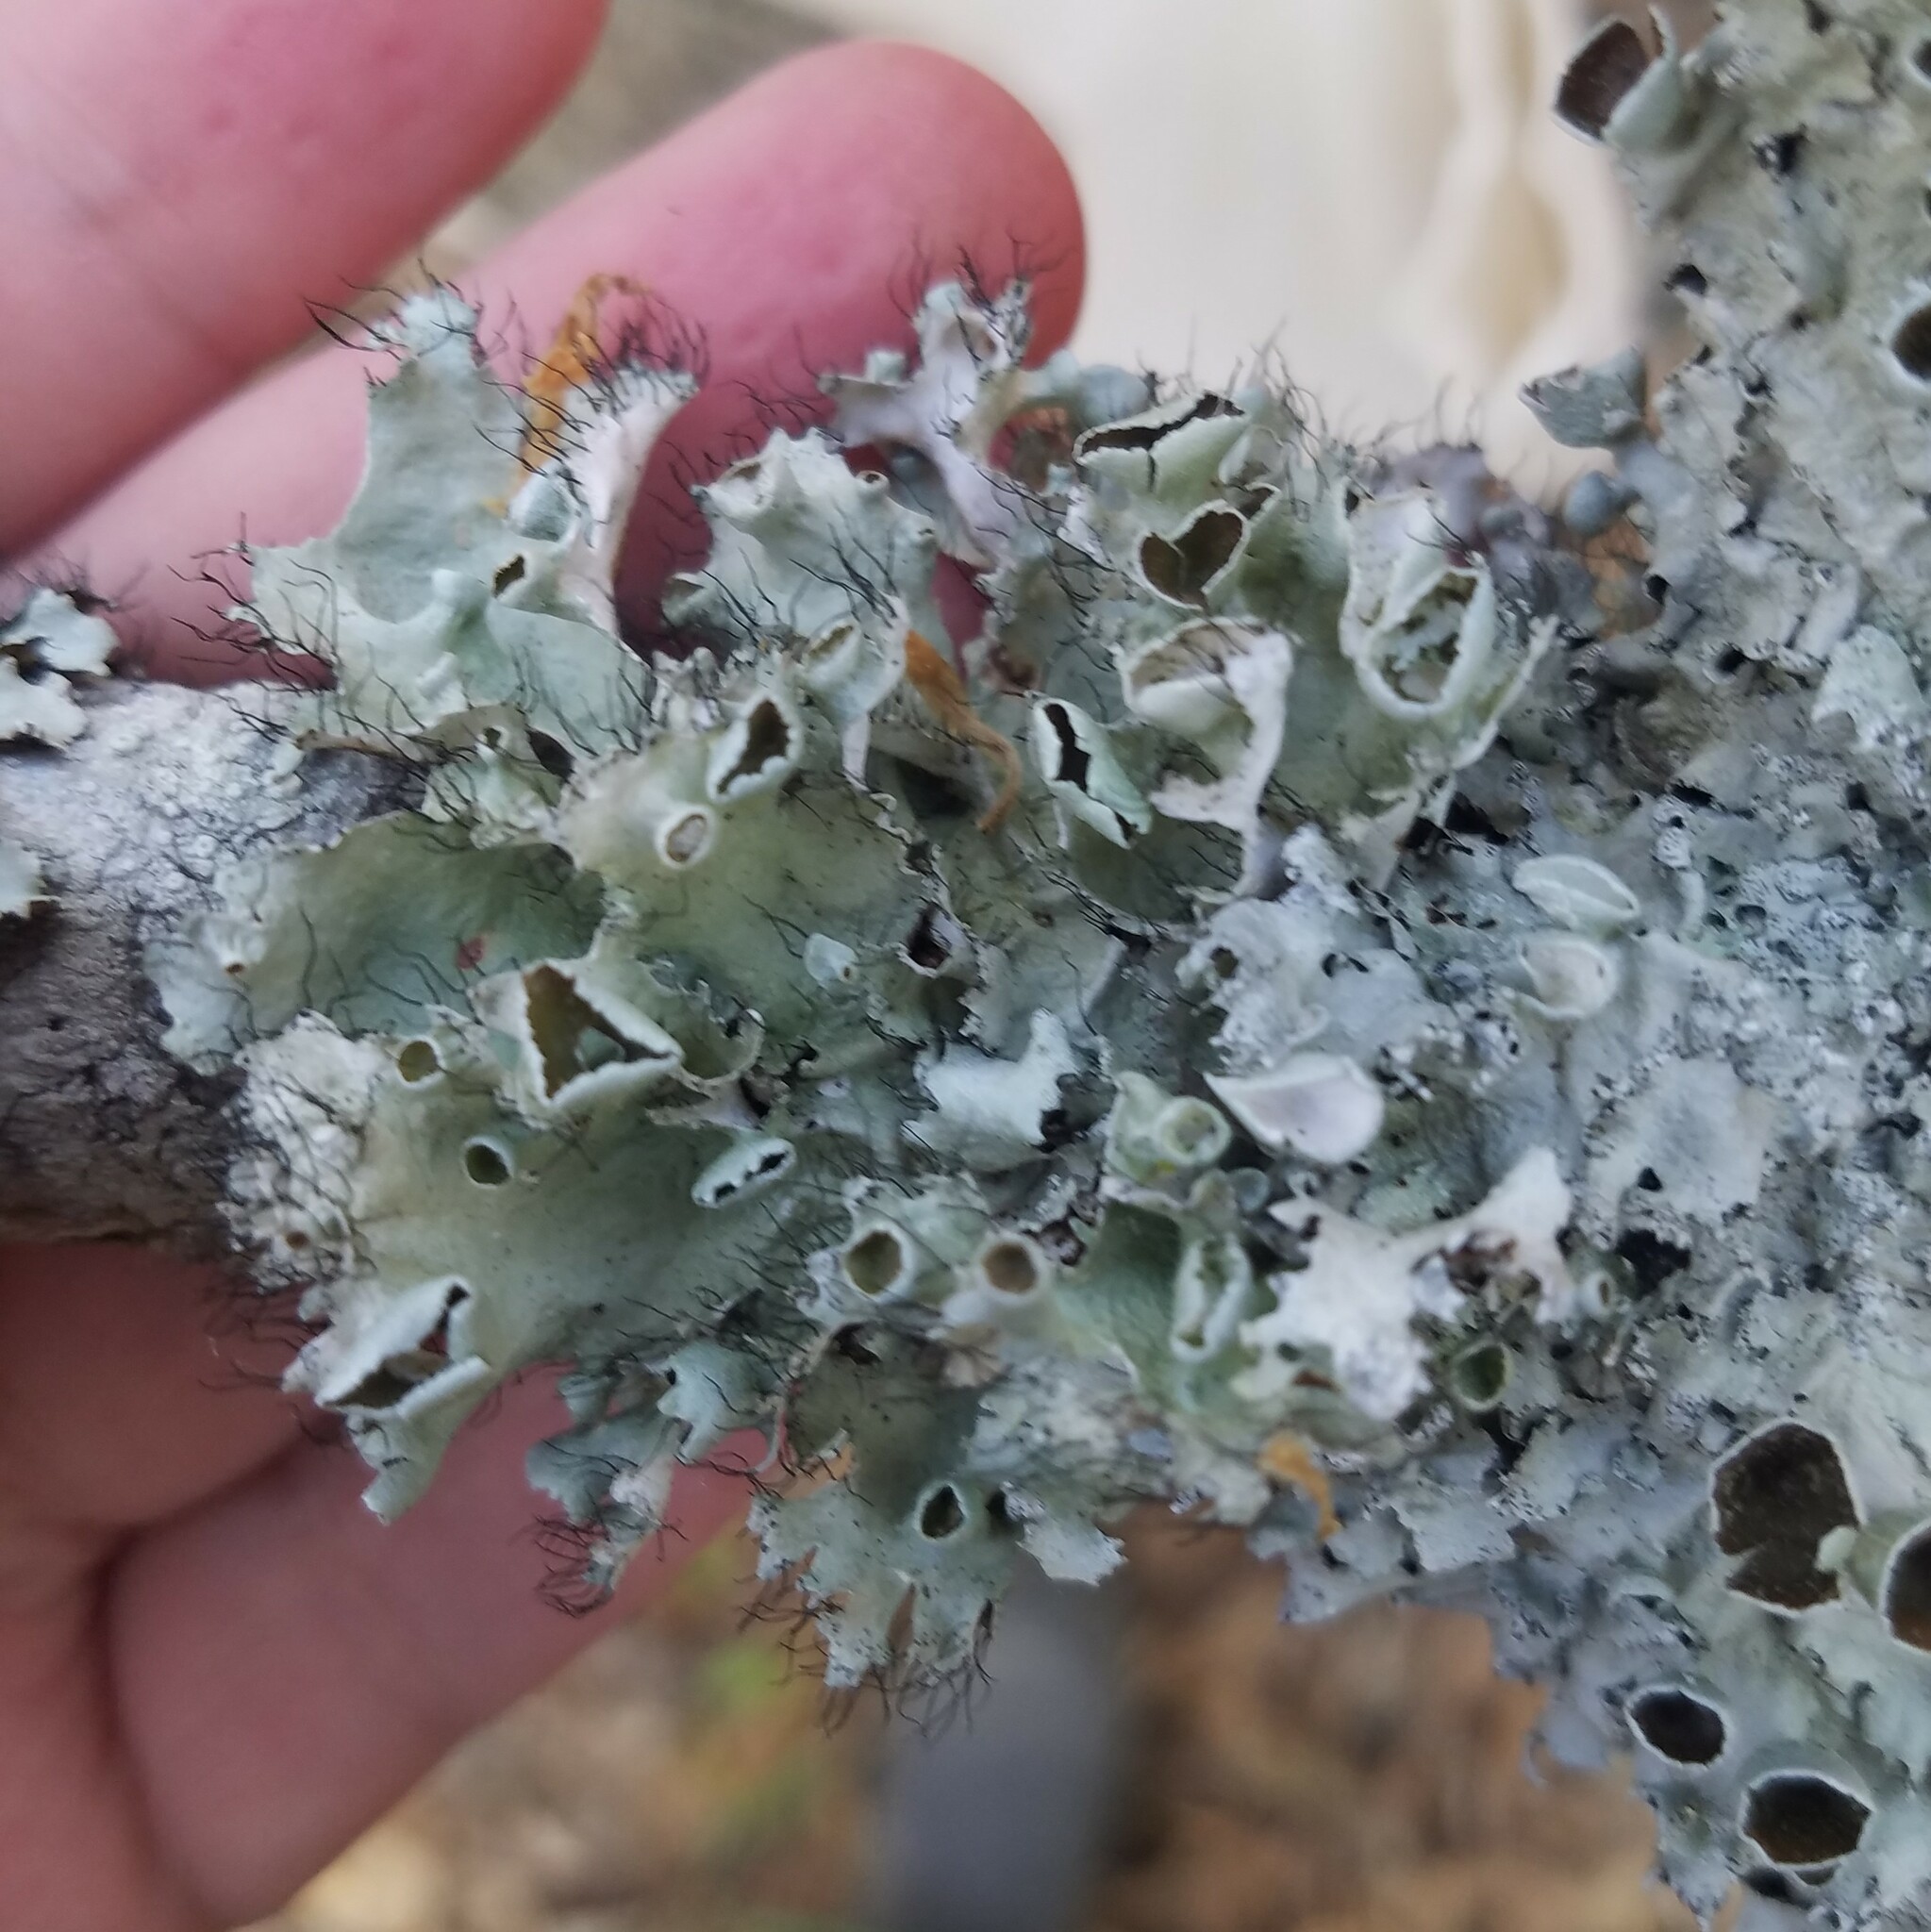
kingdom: Fungi
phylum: Ascomycota
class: Lecanoromycetes
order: Lecanorales
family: Parmeliaceae
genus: Parmotrema
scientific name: Parmotrema perforatum
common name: Perforated ruffle lichen
